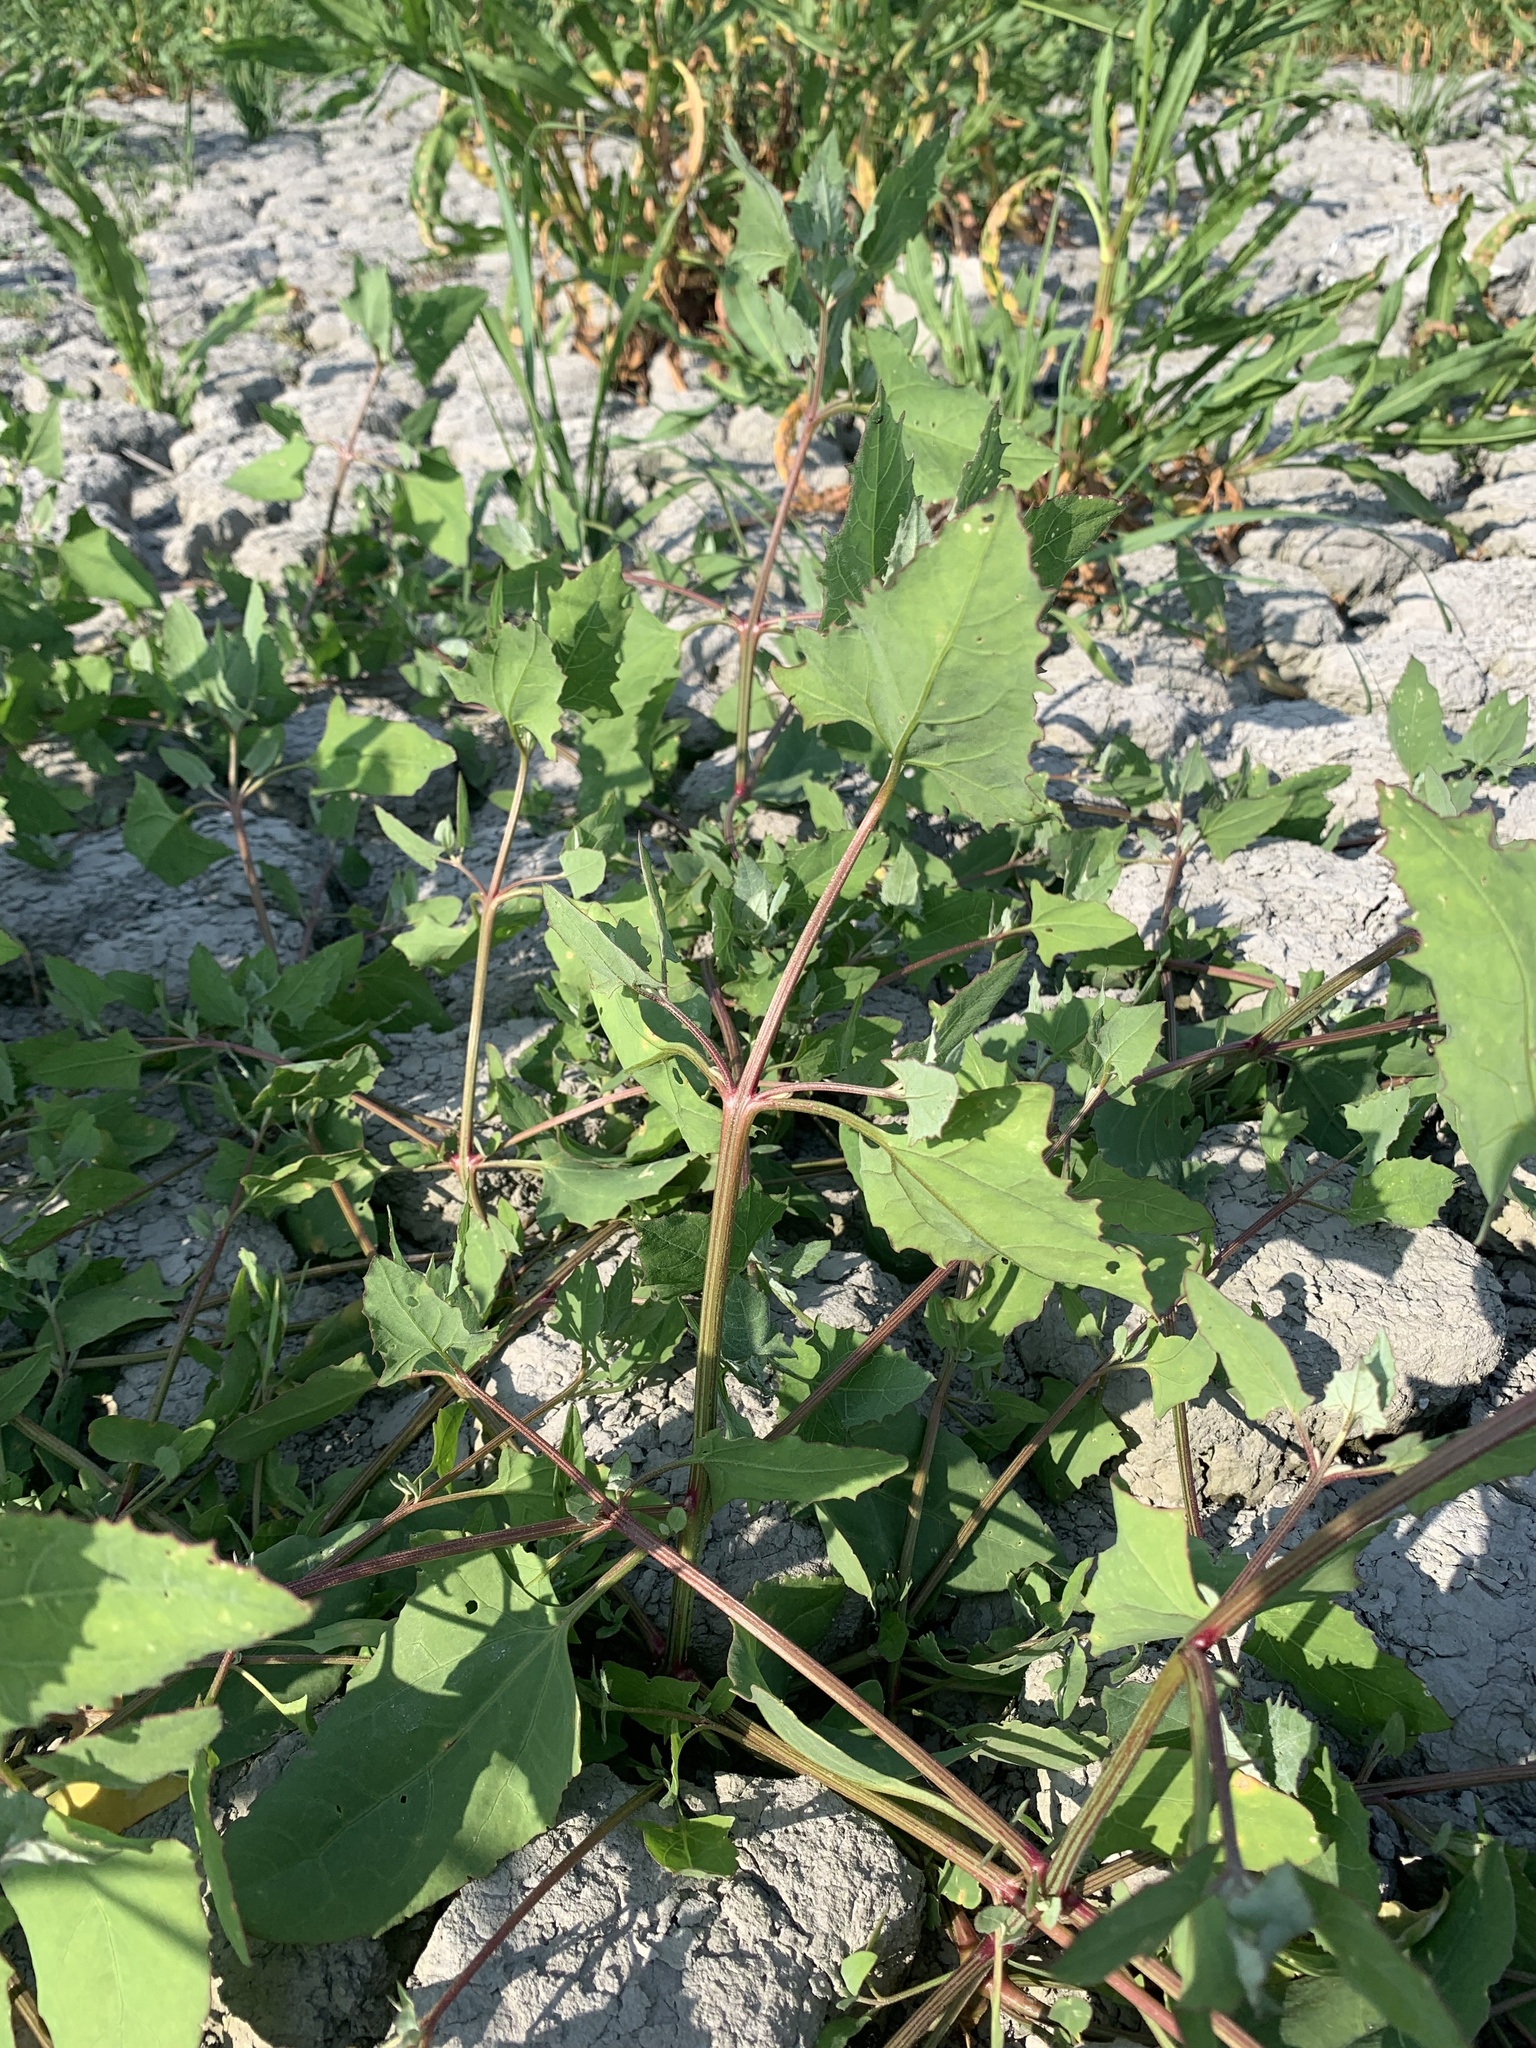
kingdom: Plantae
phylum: Tracheophyta
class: Magnoliopsida
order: Caryophyllales
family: Amaranthaceae
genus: Atriplex
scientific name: Atriplex prostrata
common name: Spear-leaved orache
